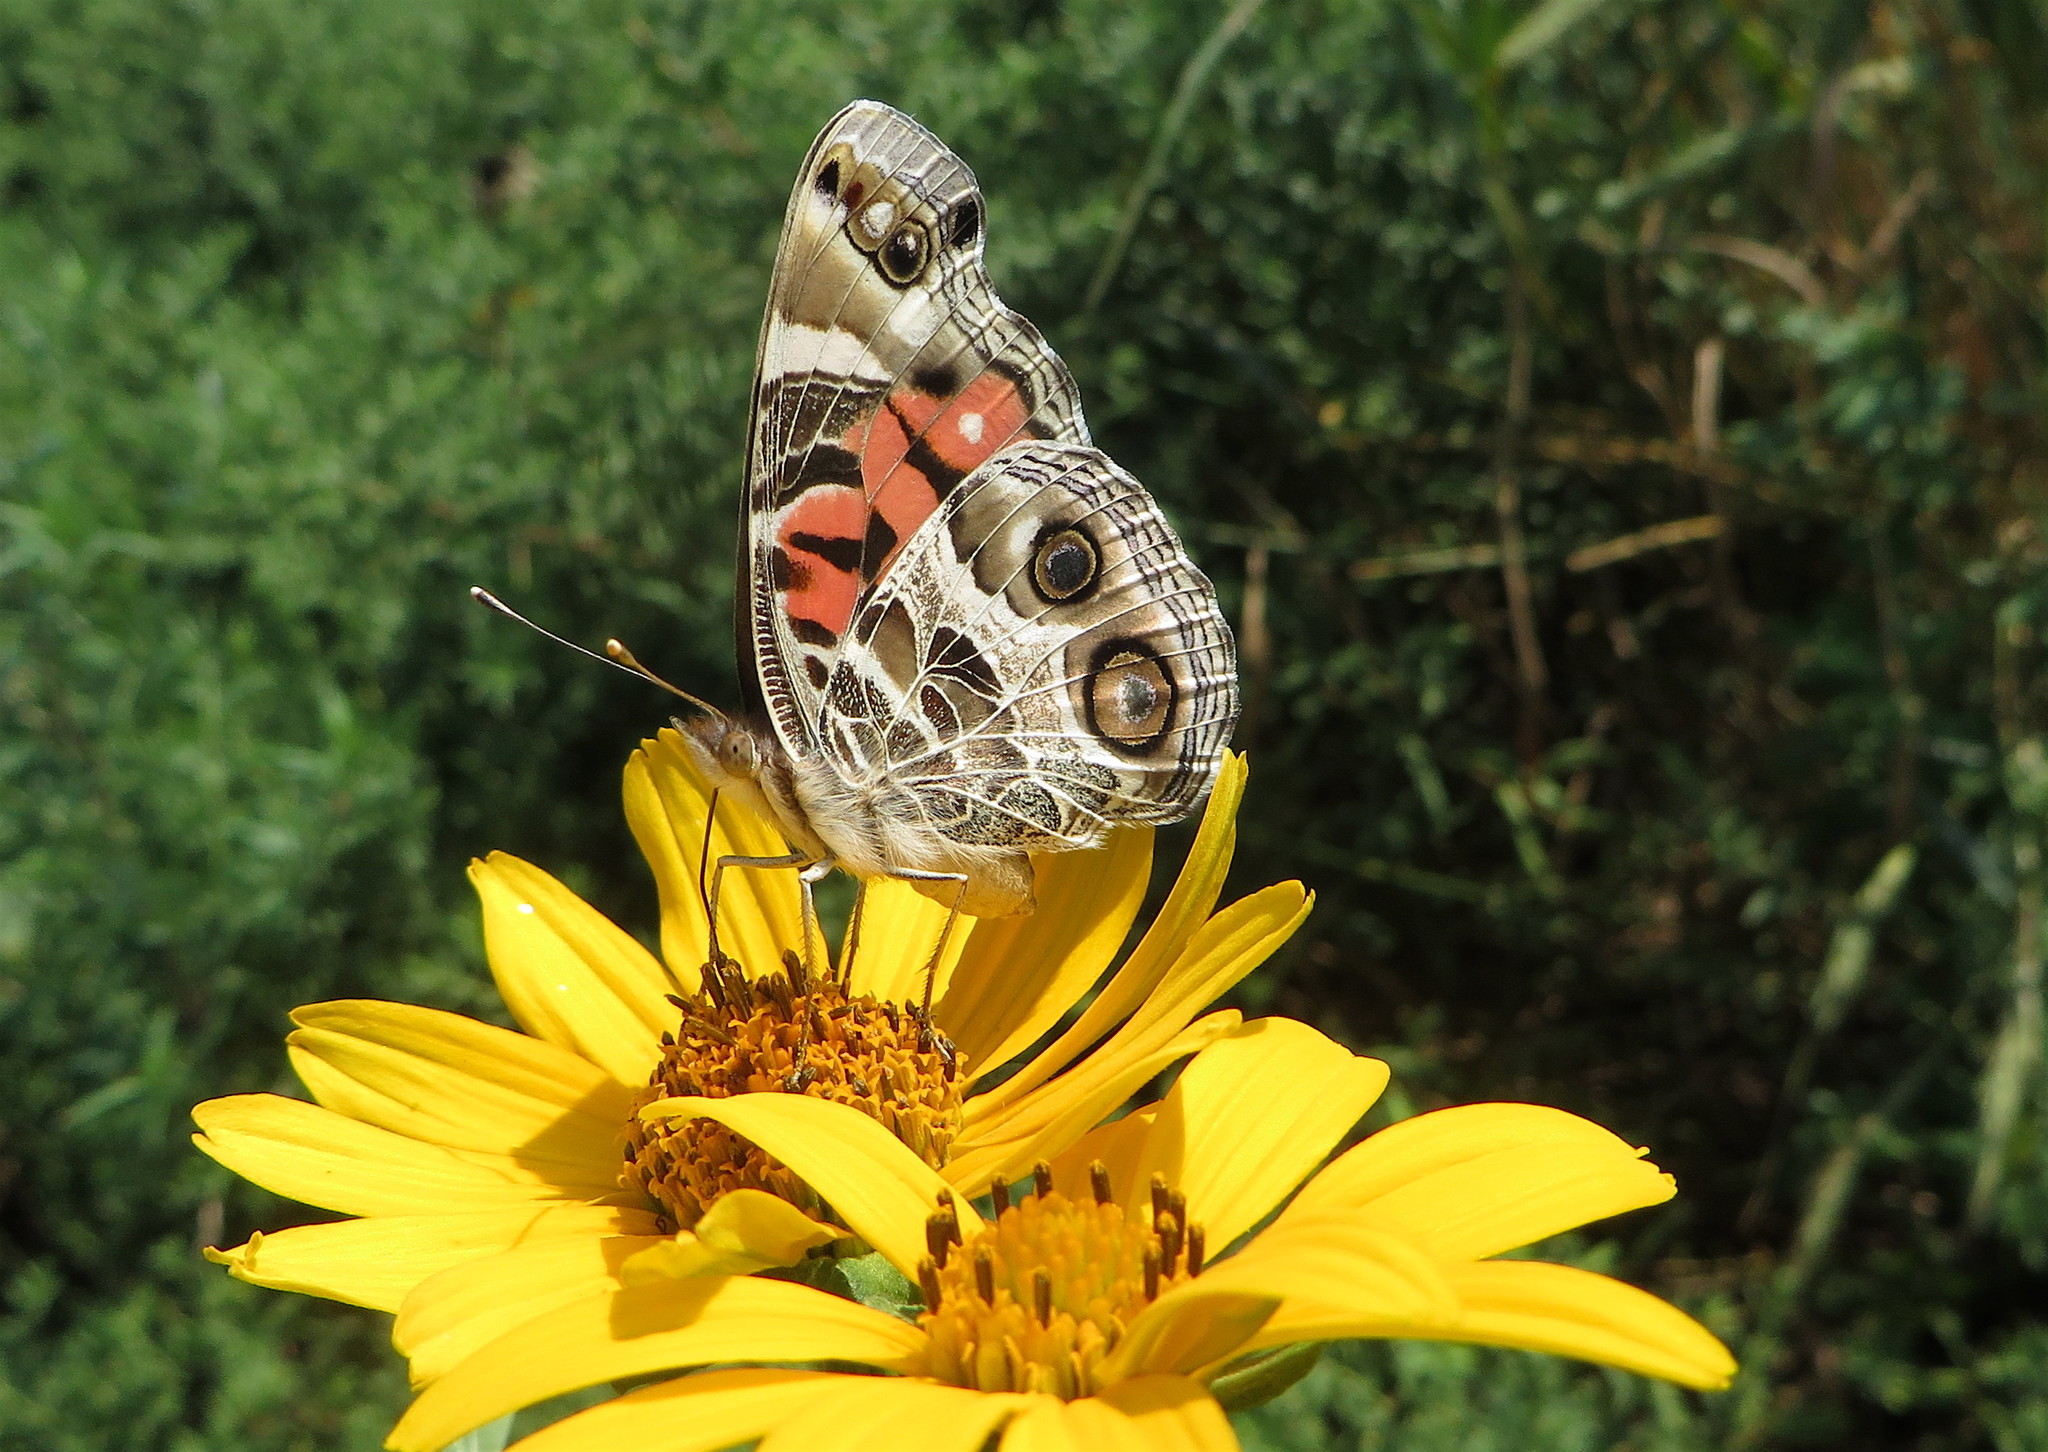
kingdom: Animalia
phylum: Arthropoda
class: Insecta
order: Lepidoptera
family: Nymphalidae
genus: Vanessa
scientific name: Vanessa virginiensis
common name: American lady
